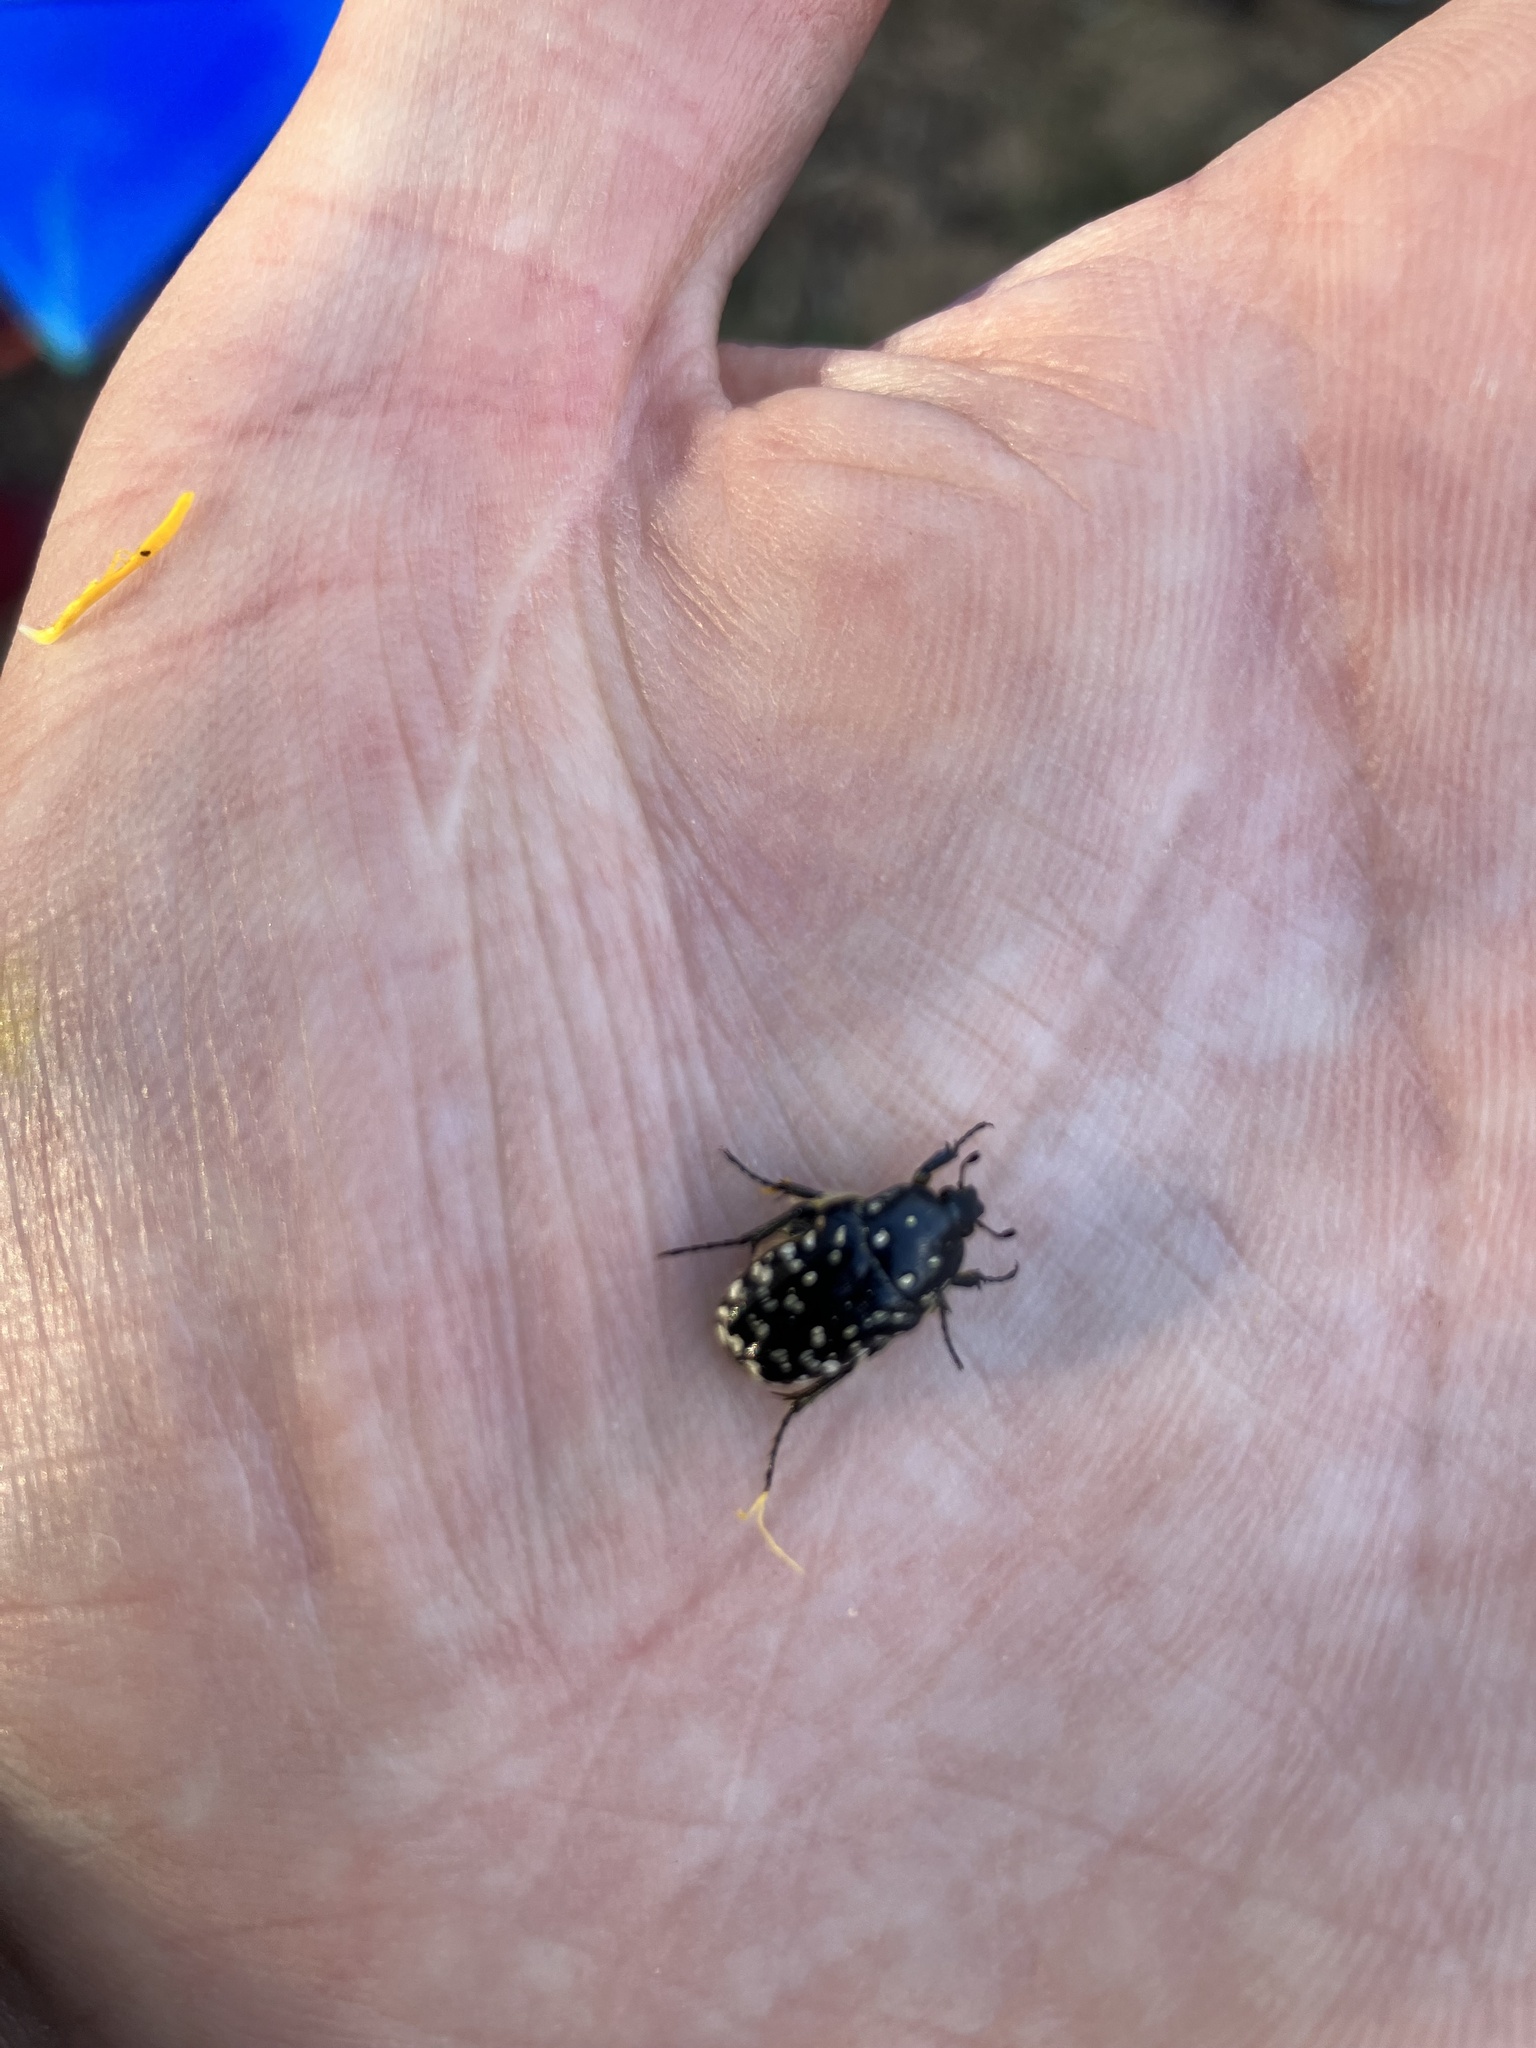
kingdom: Animalia
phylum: Arthropoda
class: Insecta
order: Coleoptera
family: Scarabaeidae
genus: Oxythyrea
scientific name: Oxythyrea noemi
